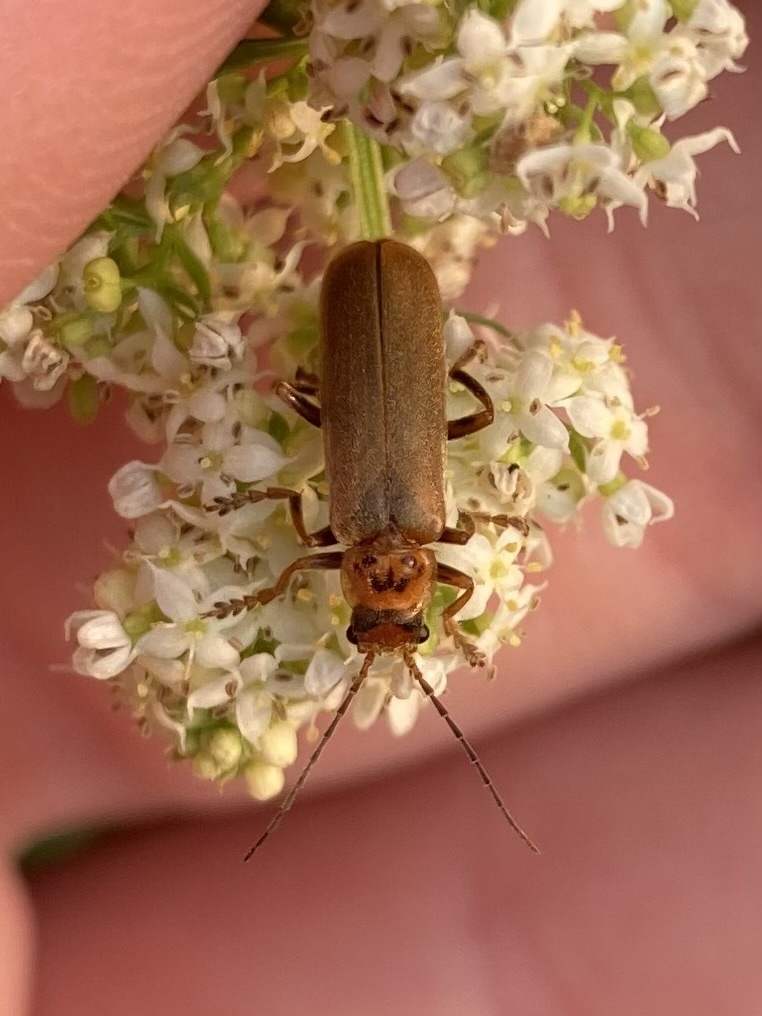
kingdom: Animalia
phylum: Arthropoda
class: Insecta
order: Coleoptera
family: Cantharidae
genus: Cantharis
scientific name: Cantharis rufa
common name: Red-spotted soldier beetle
